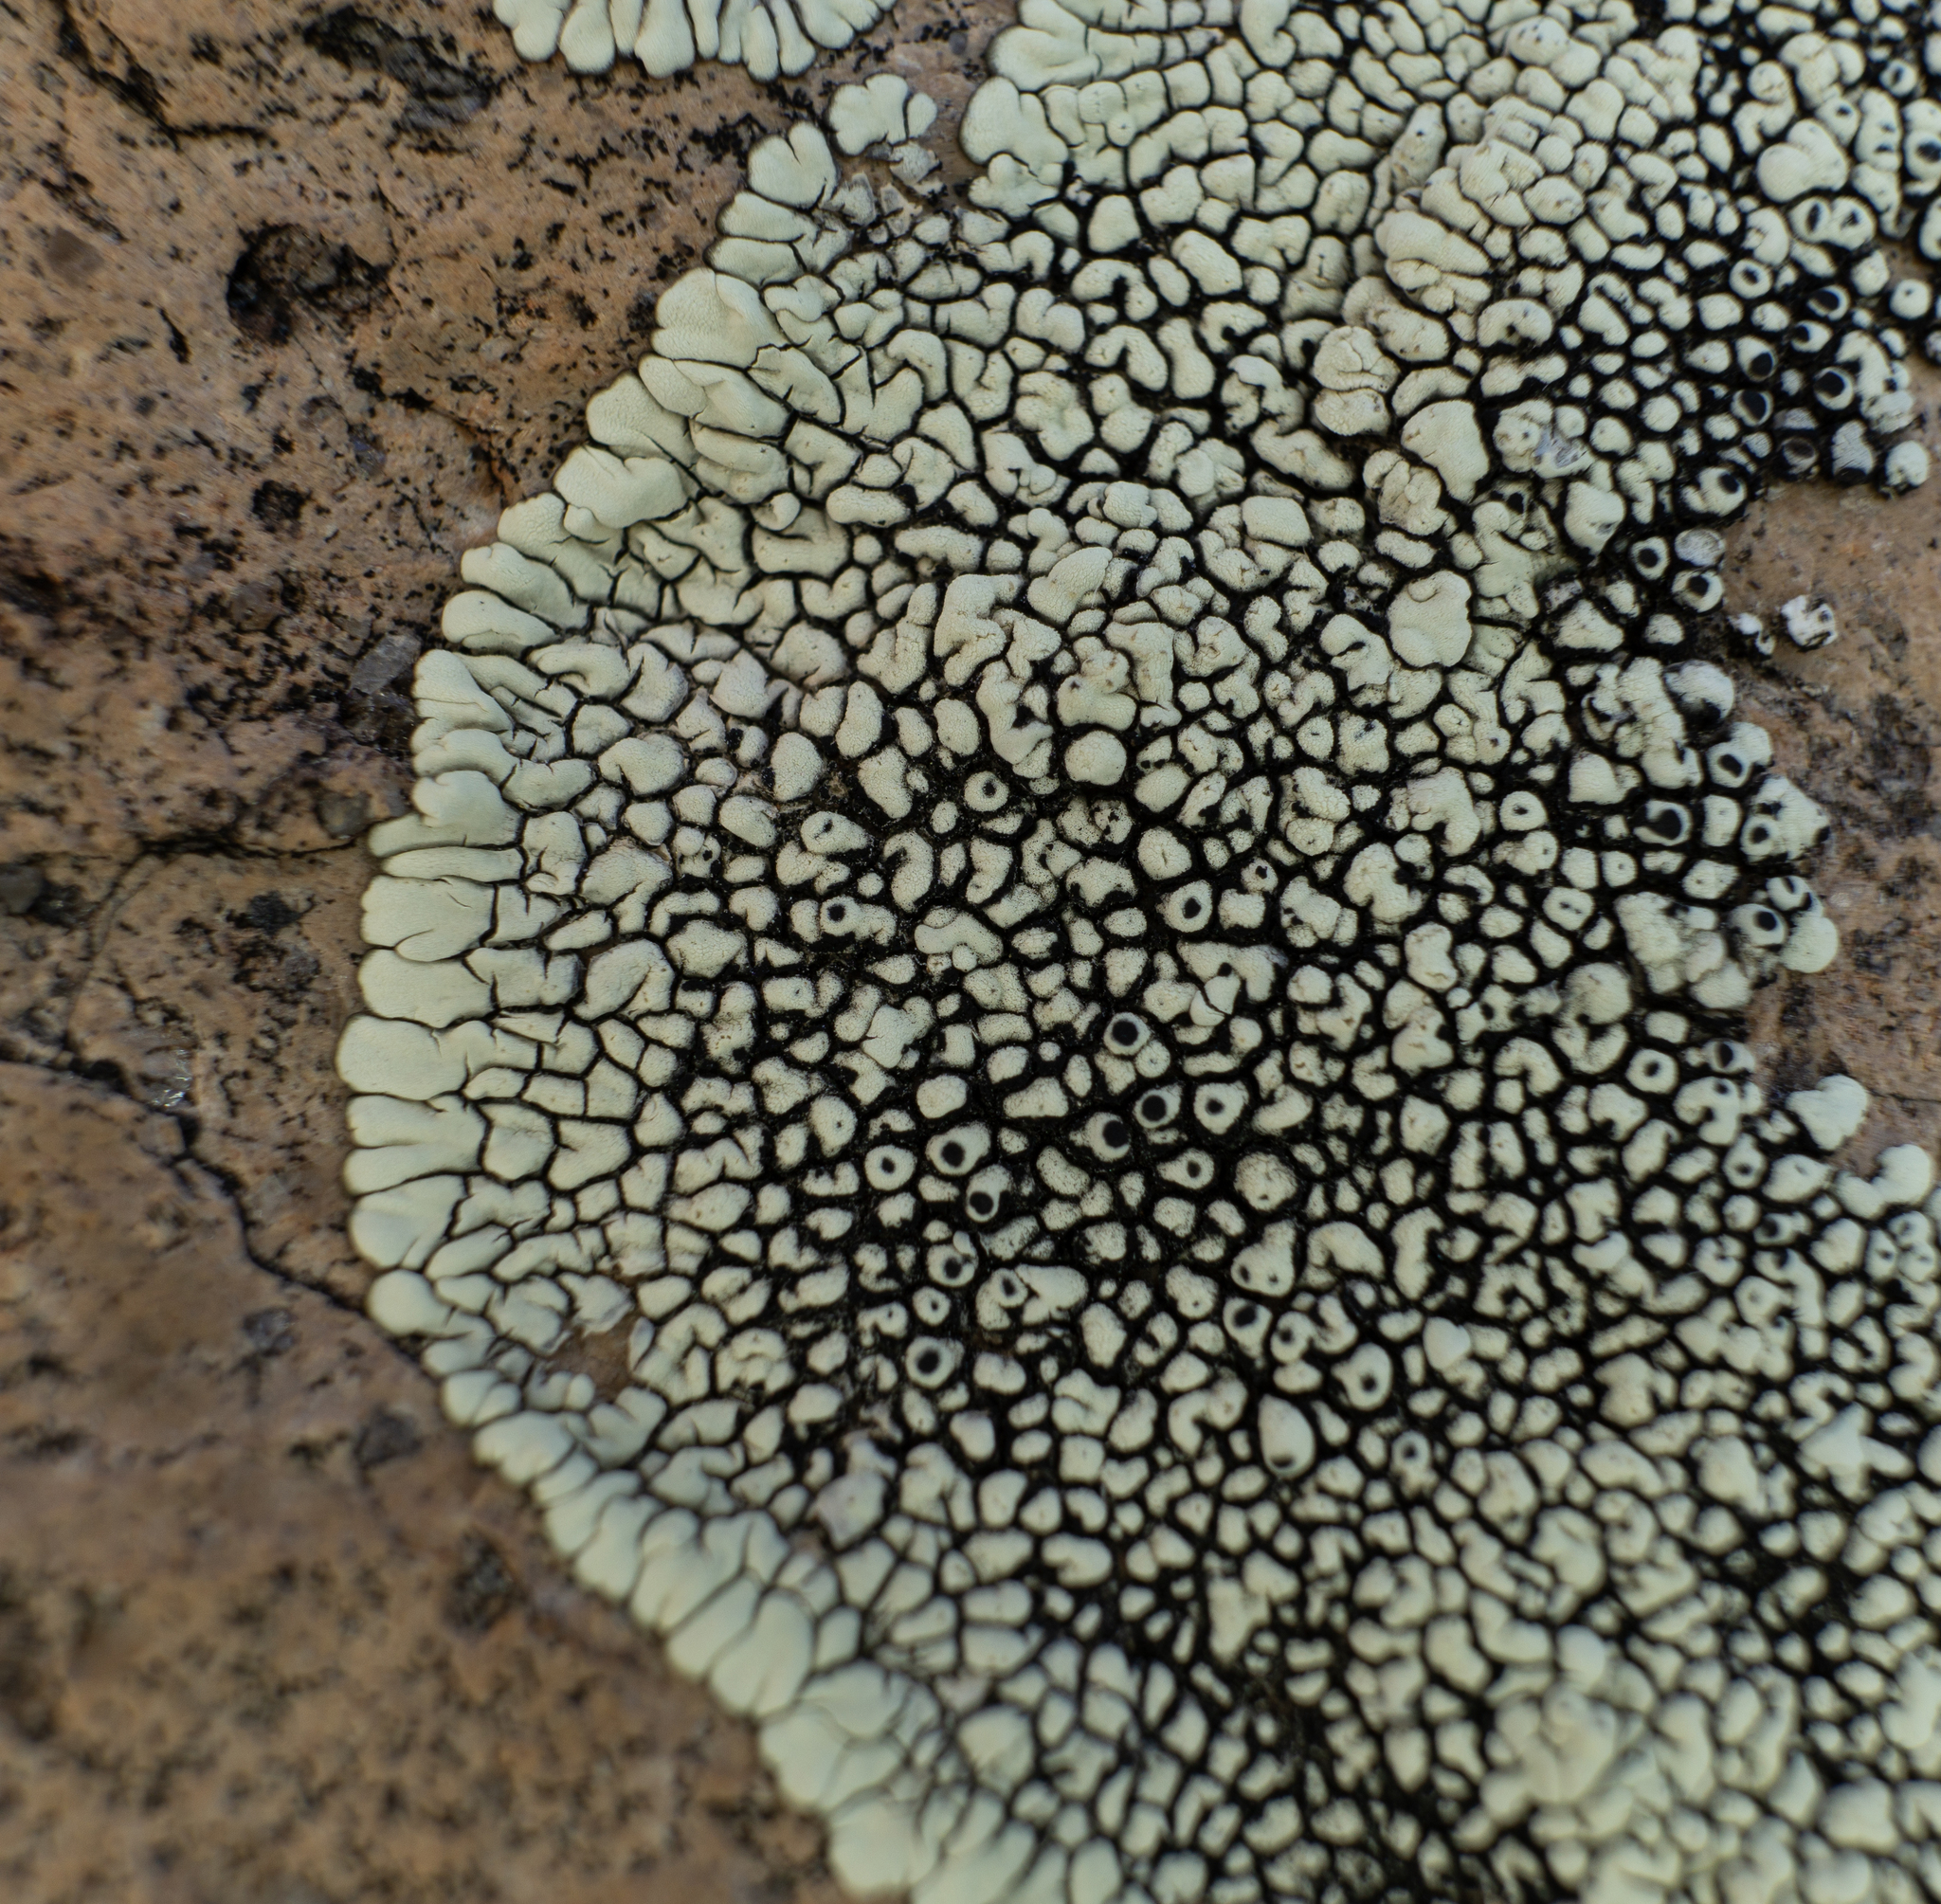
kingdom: Fungi
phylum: Ascomycota
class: Lecanoromycetes
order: Caliciales
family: Caliciaceae
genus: Dimelaena
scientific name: Dimelaena oreina
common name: Golden moonglow lichen
